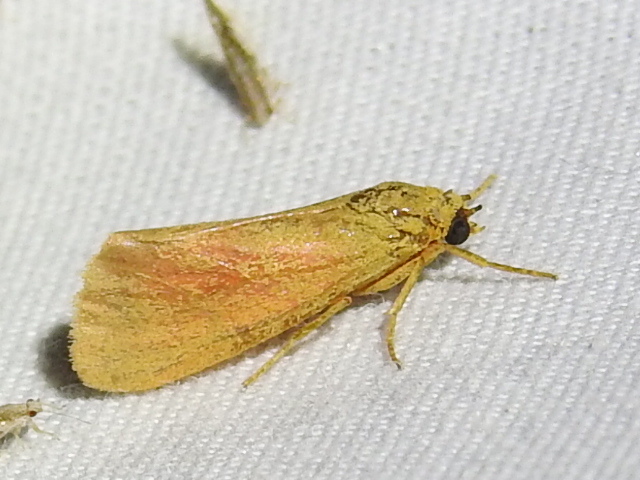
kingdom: Animalia
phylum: Arthropoda
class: Insecta
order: Lepidoptera
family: Erebidae
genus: Virbia
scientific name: Virbia aurantiaca
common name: Orange virbia moth
